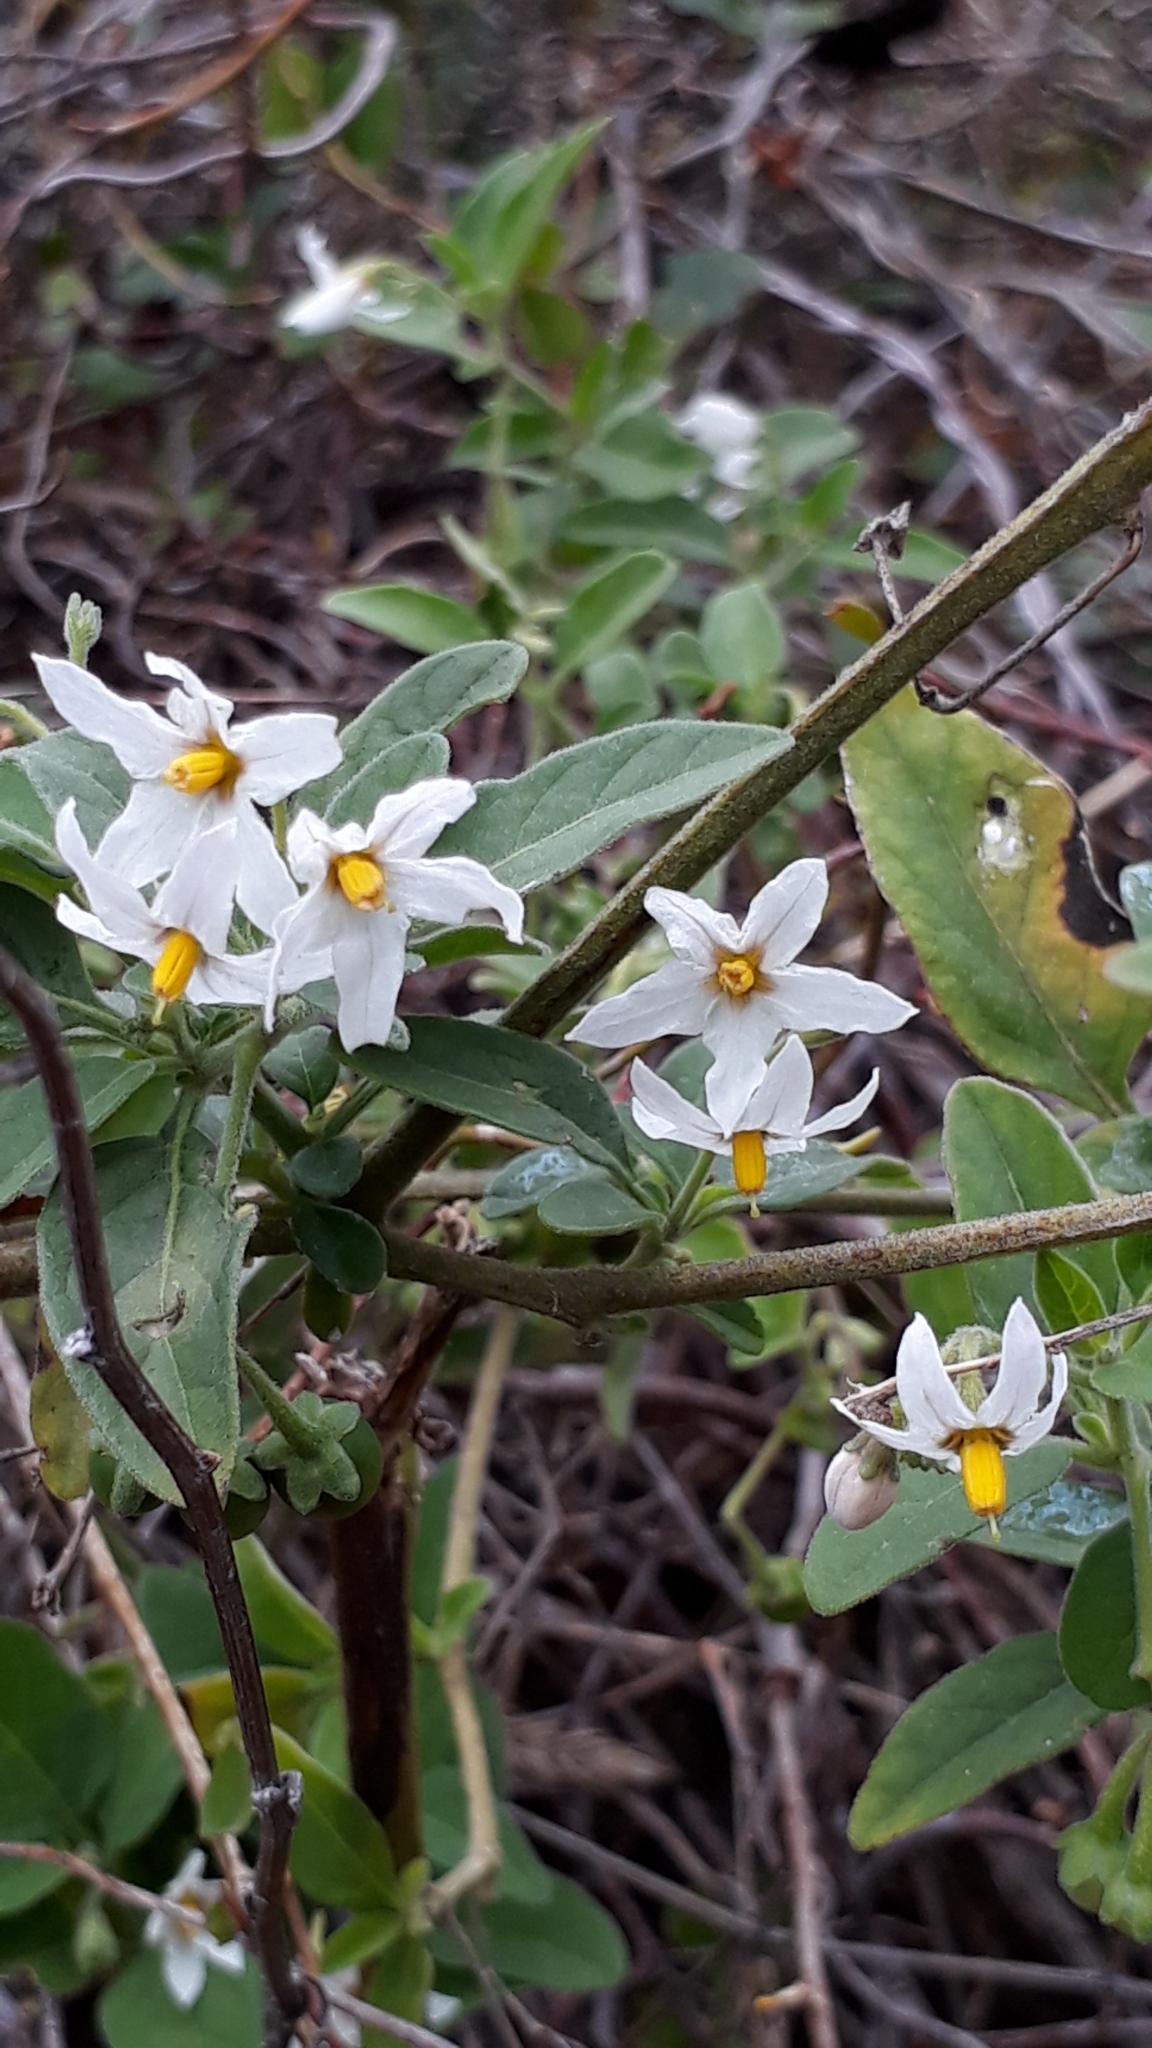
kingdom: Plantae
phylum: Tracheophyta
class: Magnoliopsida
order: Solanales
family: Solanaceae
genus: Solanum
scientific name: Solanum chenopodioides
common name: Tall nightshade
